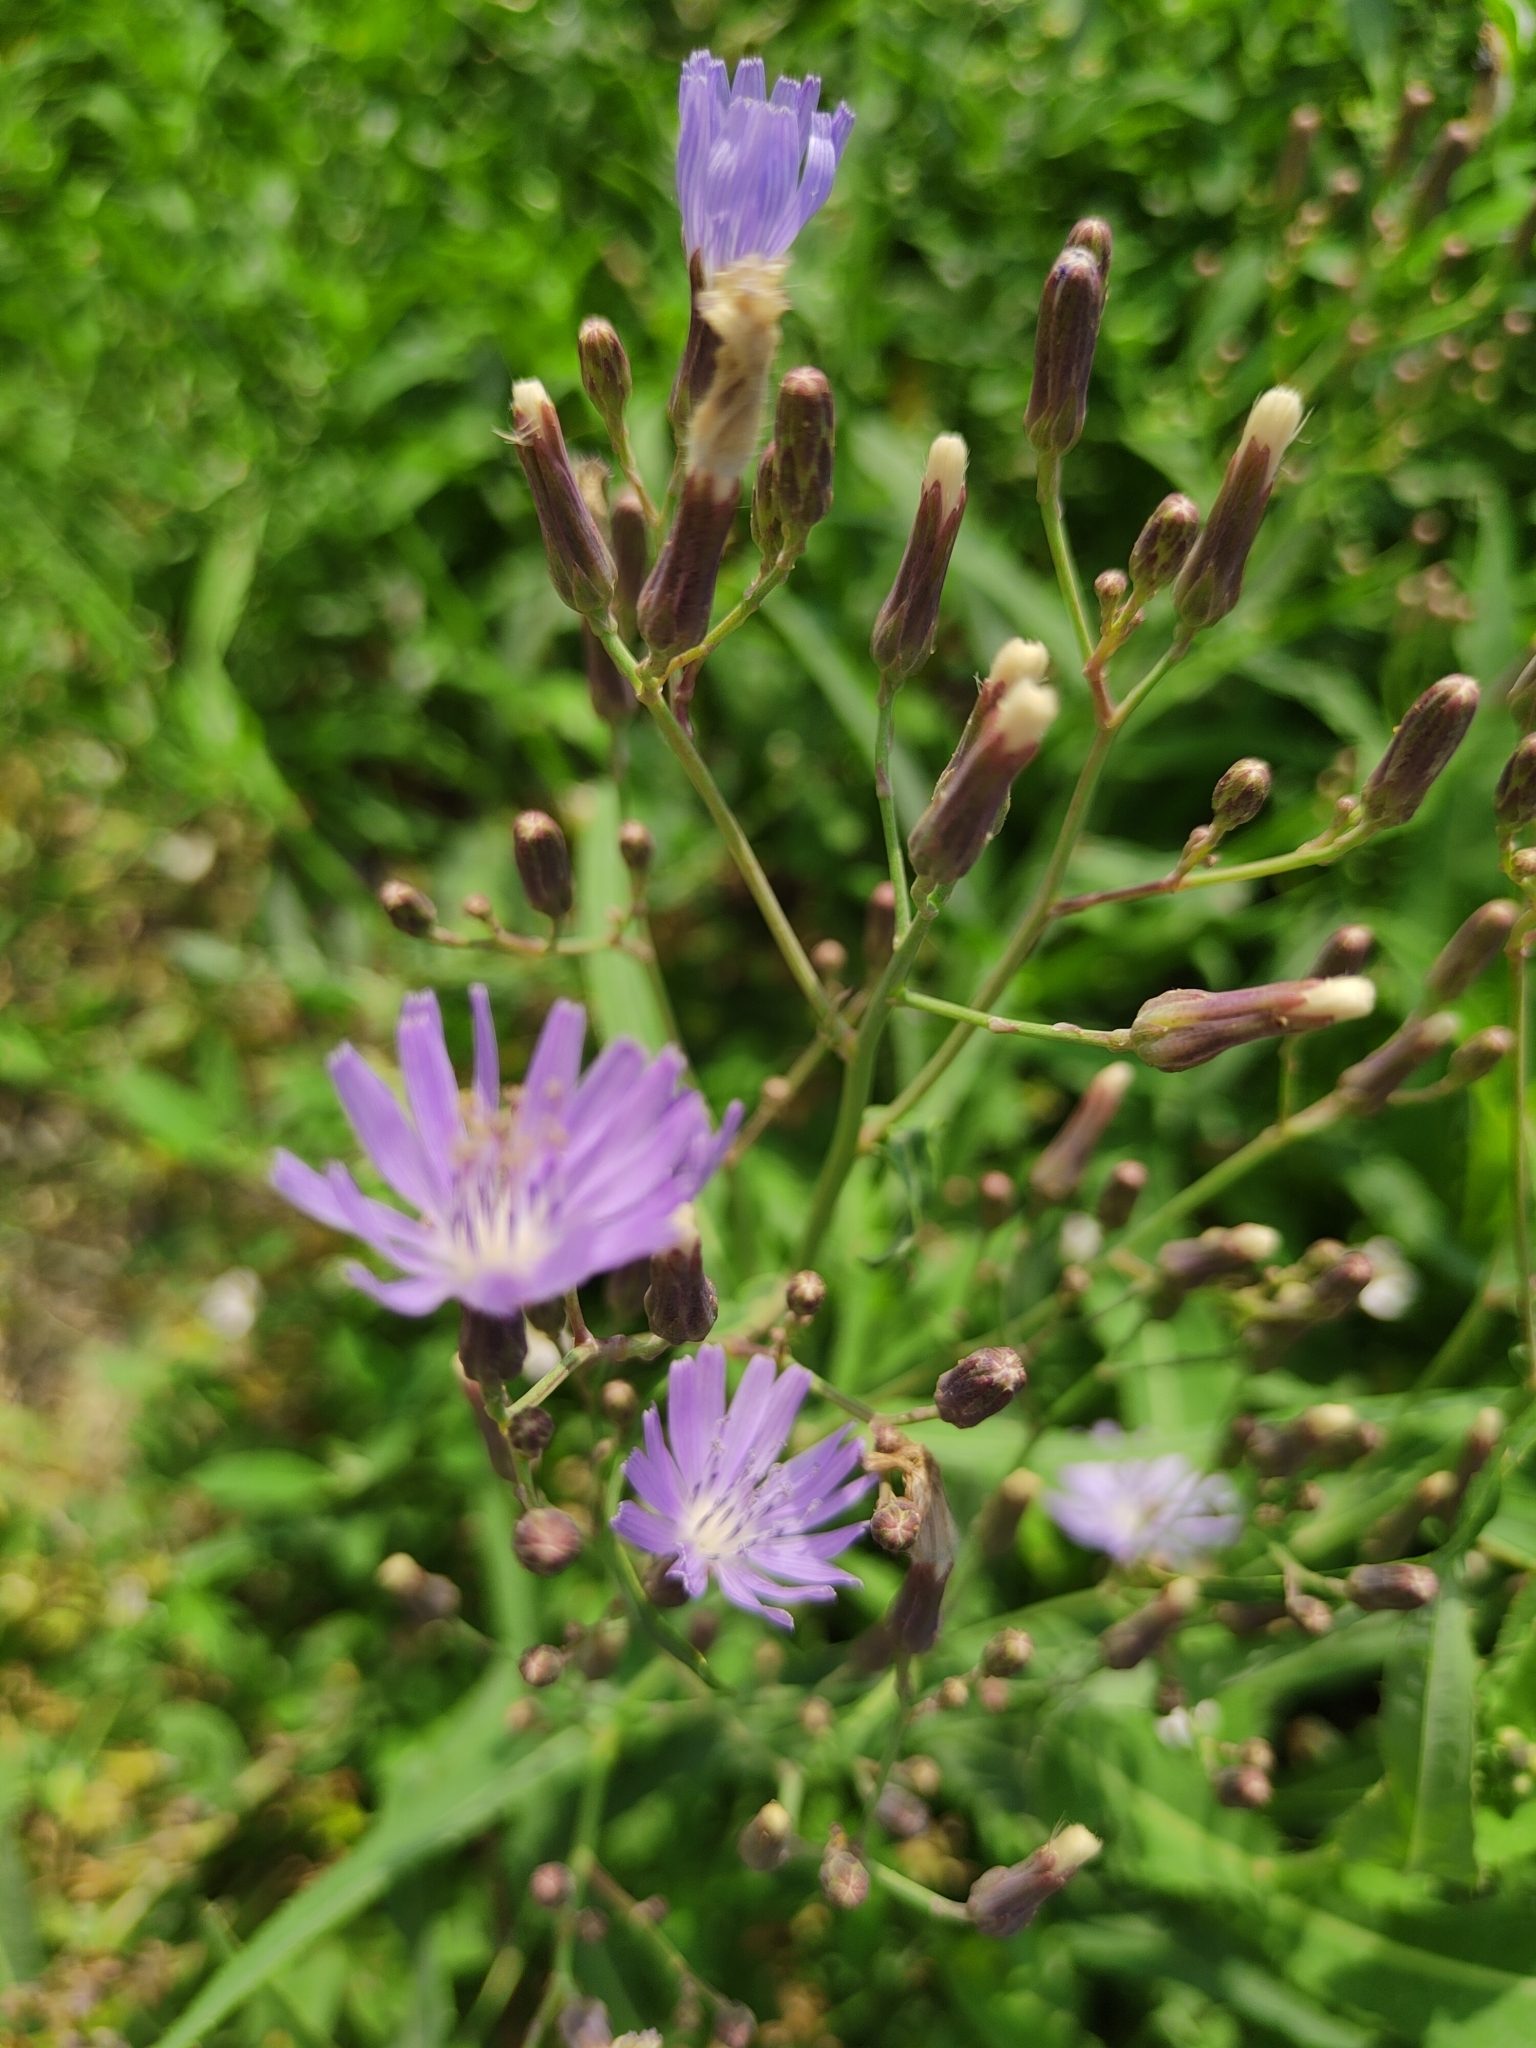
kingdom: Plantae
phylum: Tracheophyta
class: Magnoliopsida
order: Asterales
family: Asteraceae
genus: Lactuca
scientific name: Lactuca tatarica
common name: Blue lettuce
